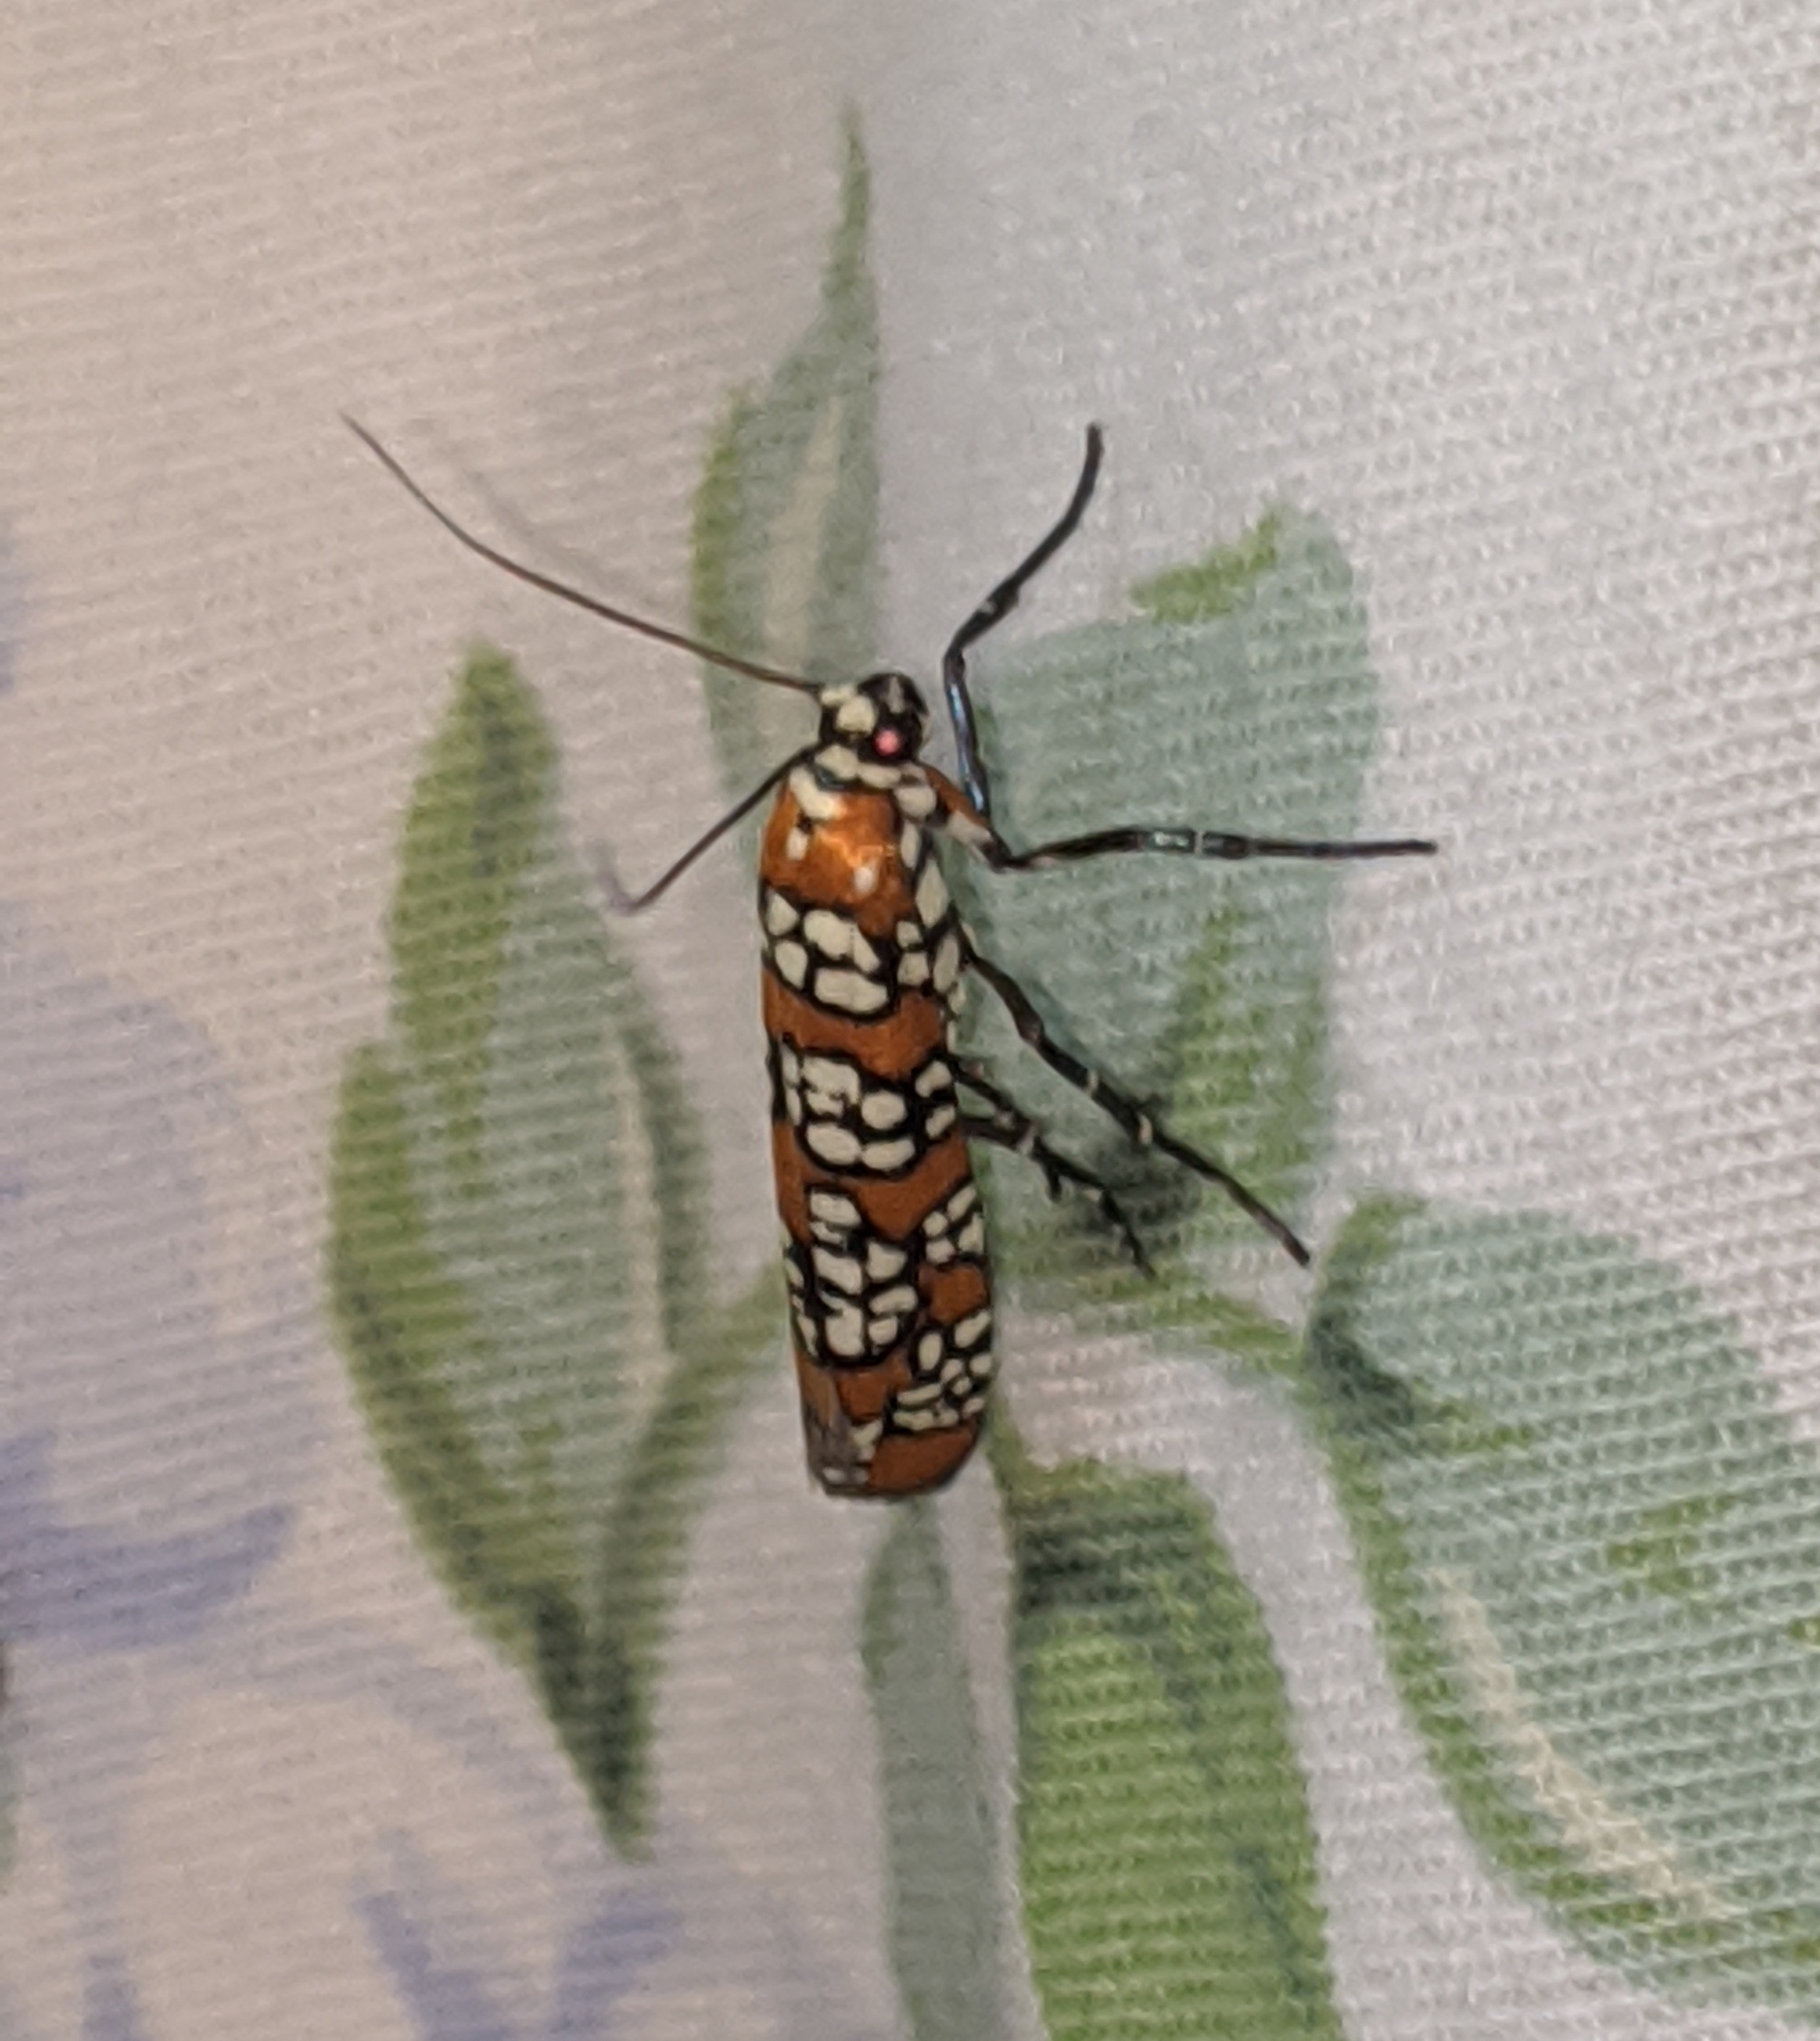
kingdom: Animalia
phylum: Arthropoda
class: Insecta
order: Lepidoptera
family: Attevidae
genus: Atteva
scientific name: Atteva punctella
